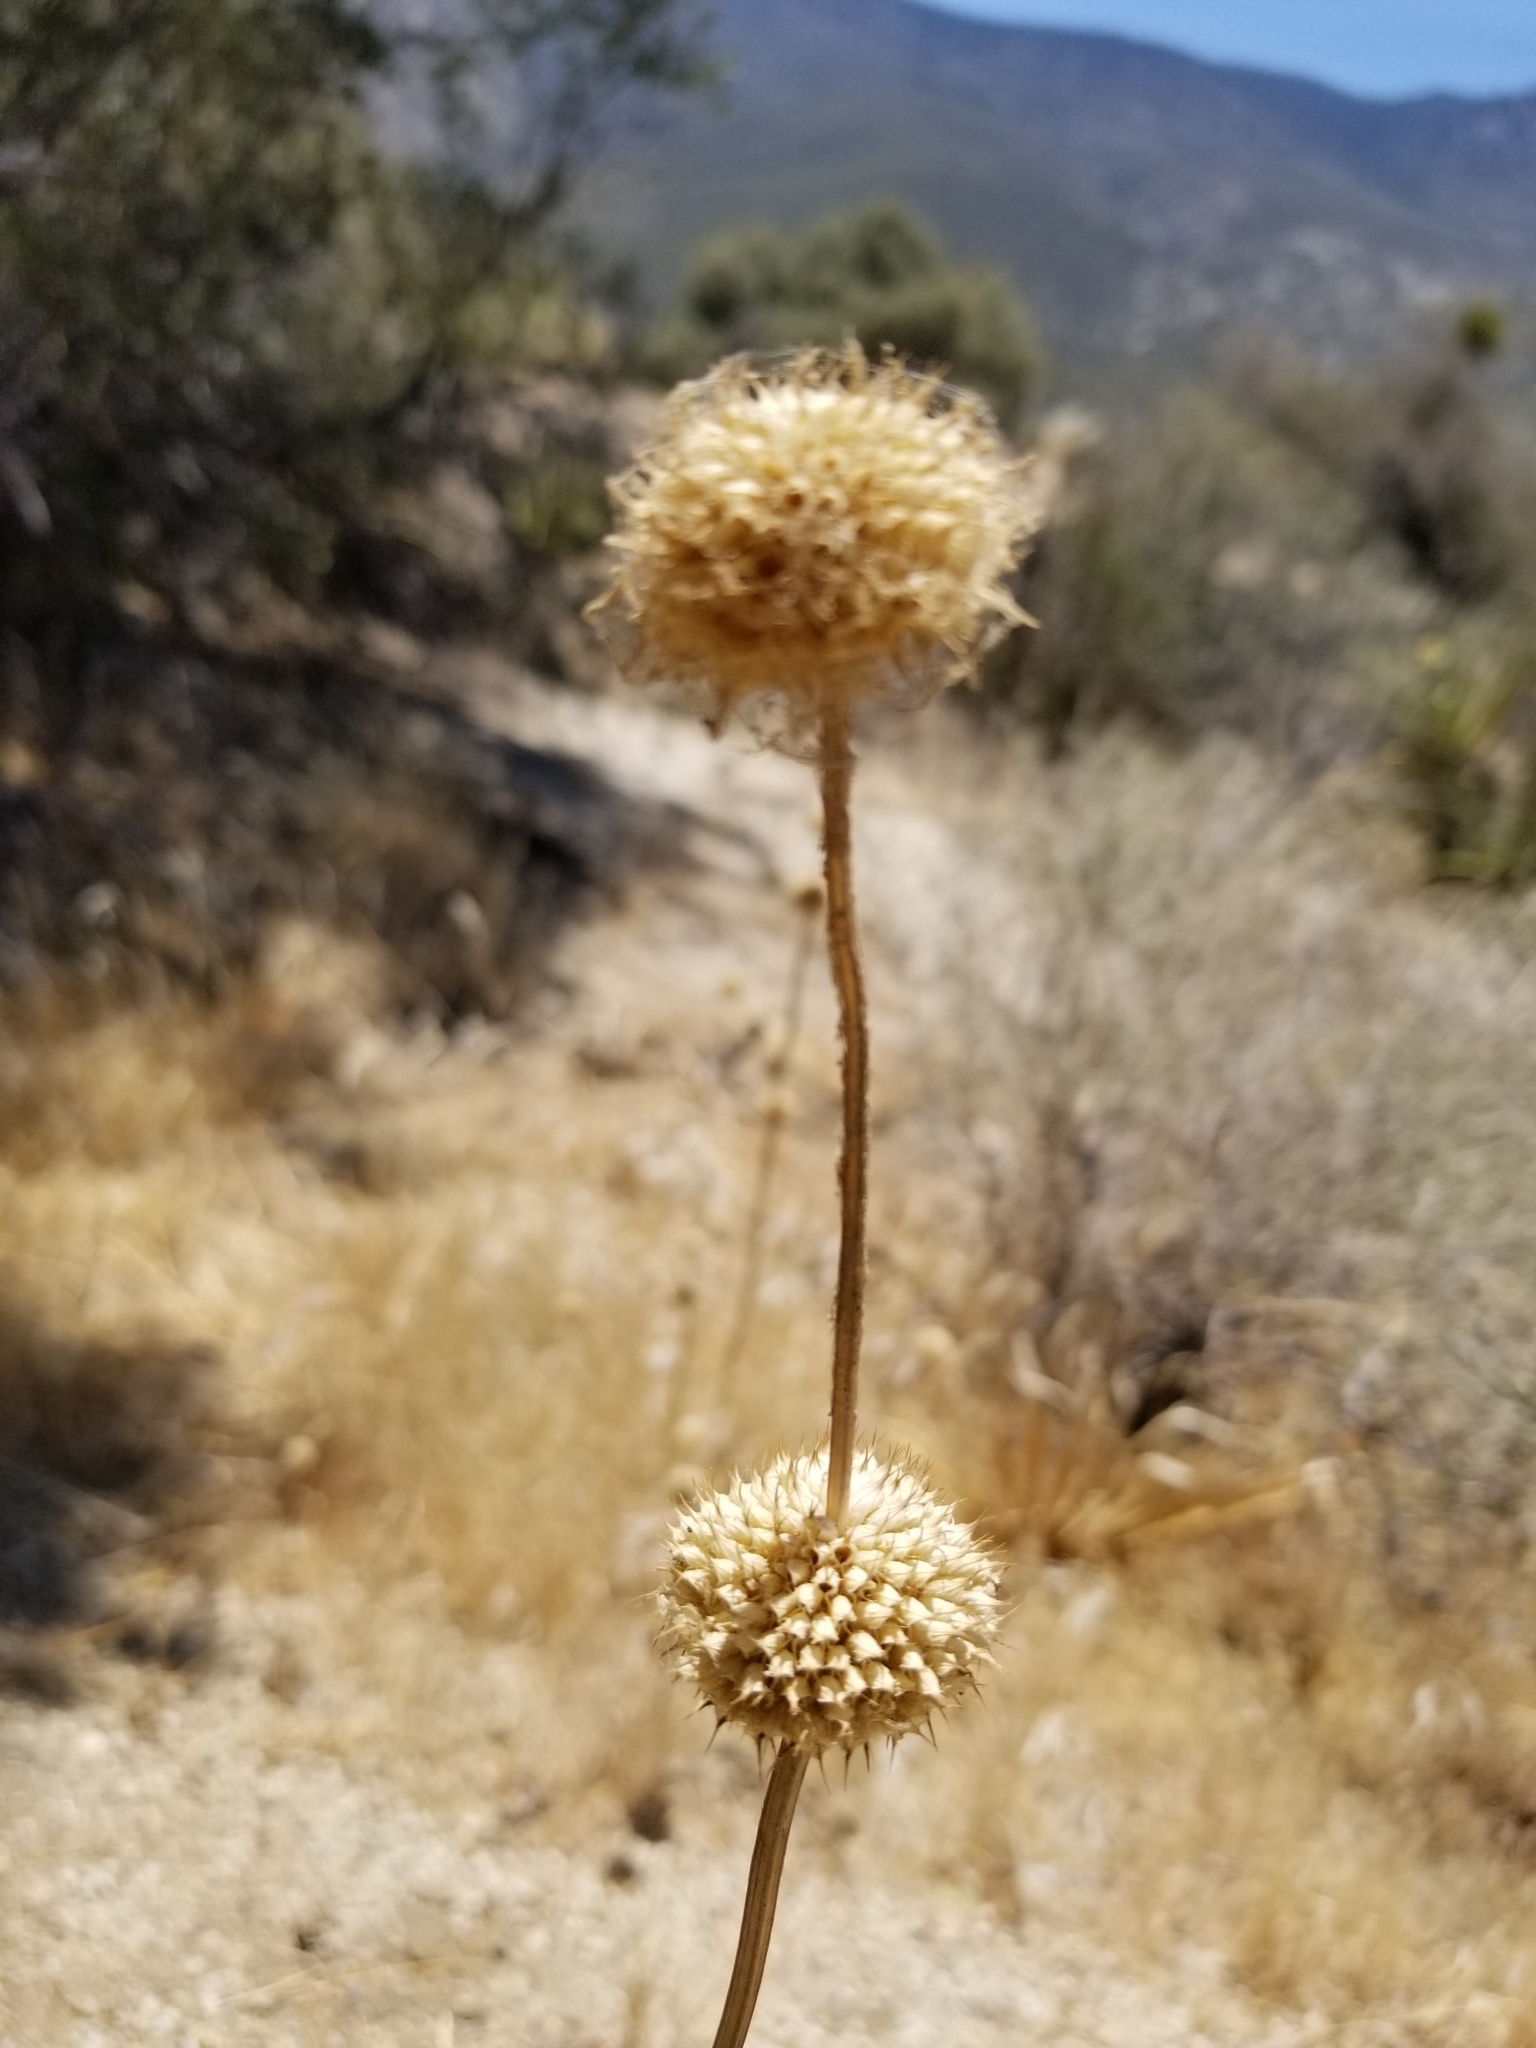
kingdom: Plantae
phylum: Tracheophyta
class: Magnoliopsida
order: Lamiales
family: Lamiaceae
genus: Salvia
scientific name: Salvia columbariae
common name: Chia
